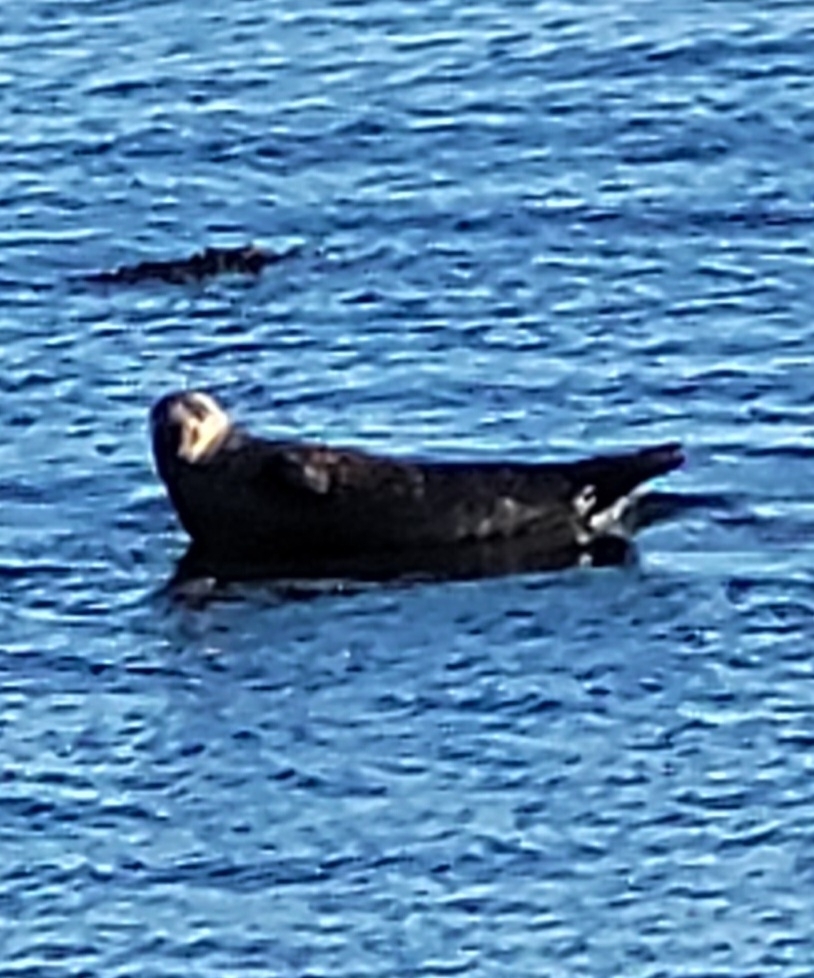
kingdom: Animalia
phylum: Chordata
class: Mammalia
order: Carnivora
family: Phocidae
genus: Phoca
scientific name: Phoca vitulina
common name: Harbor seal
